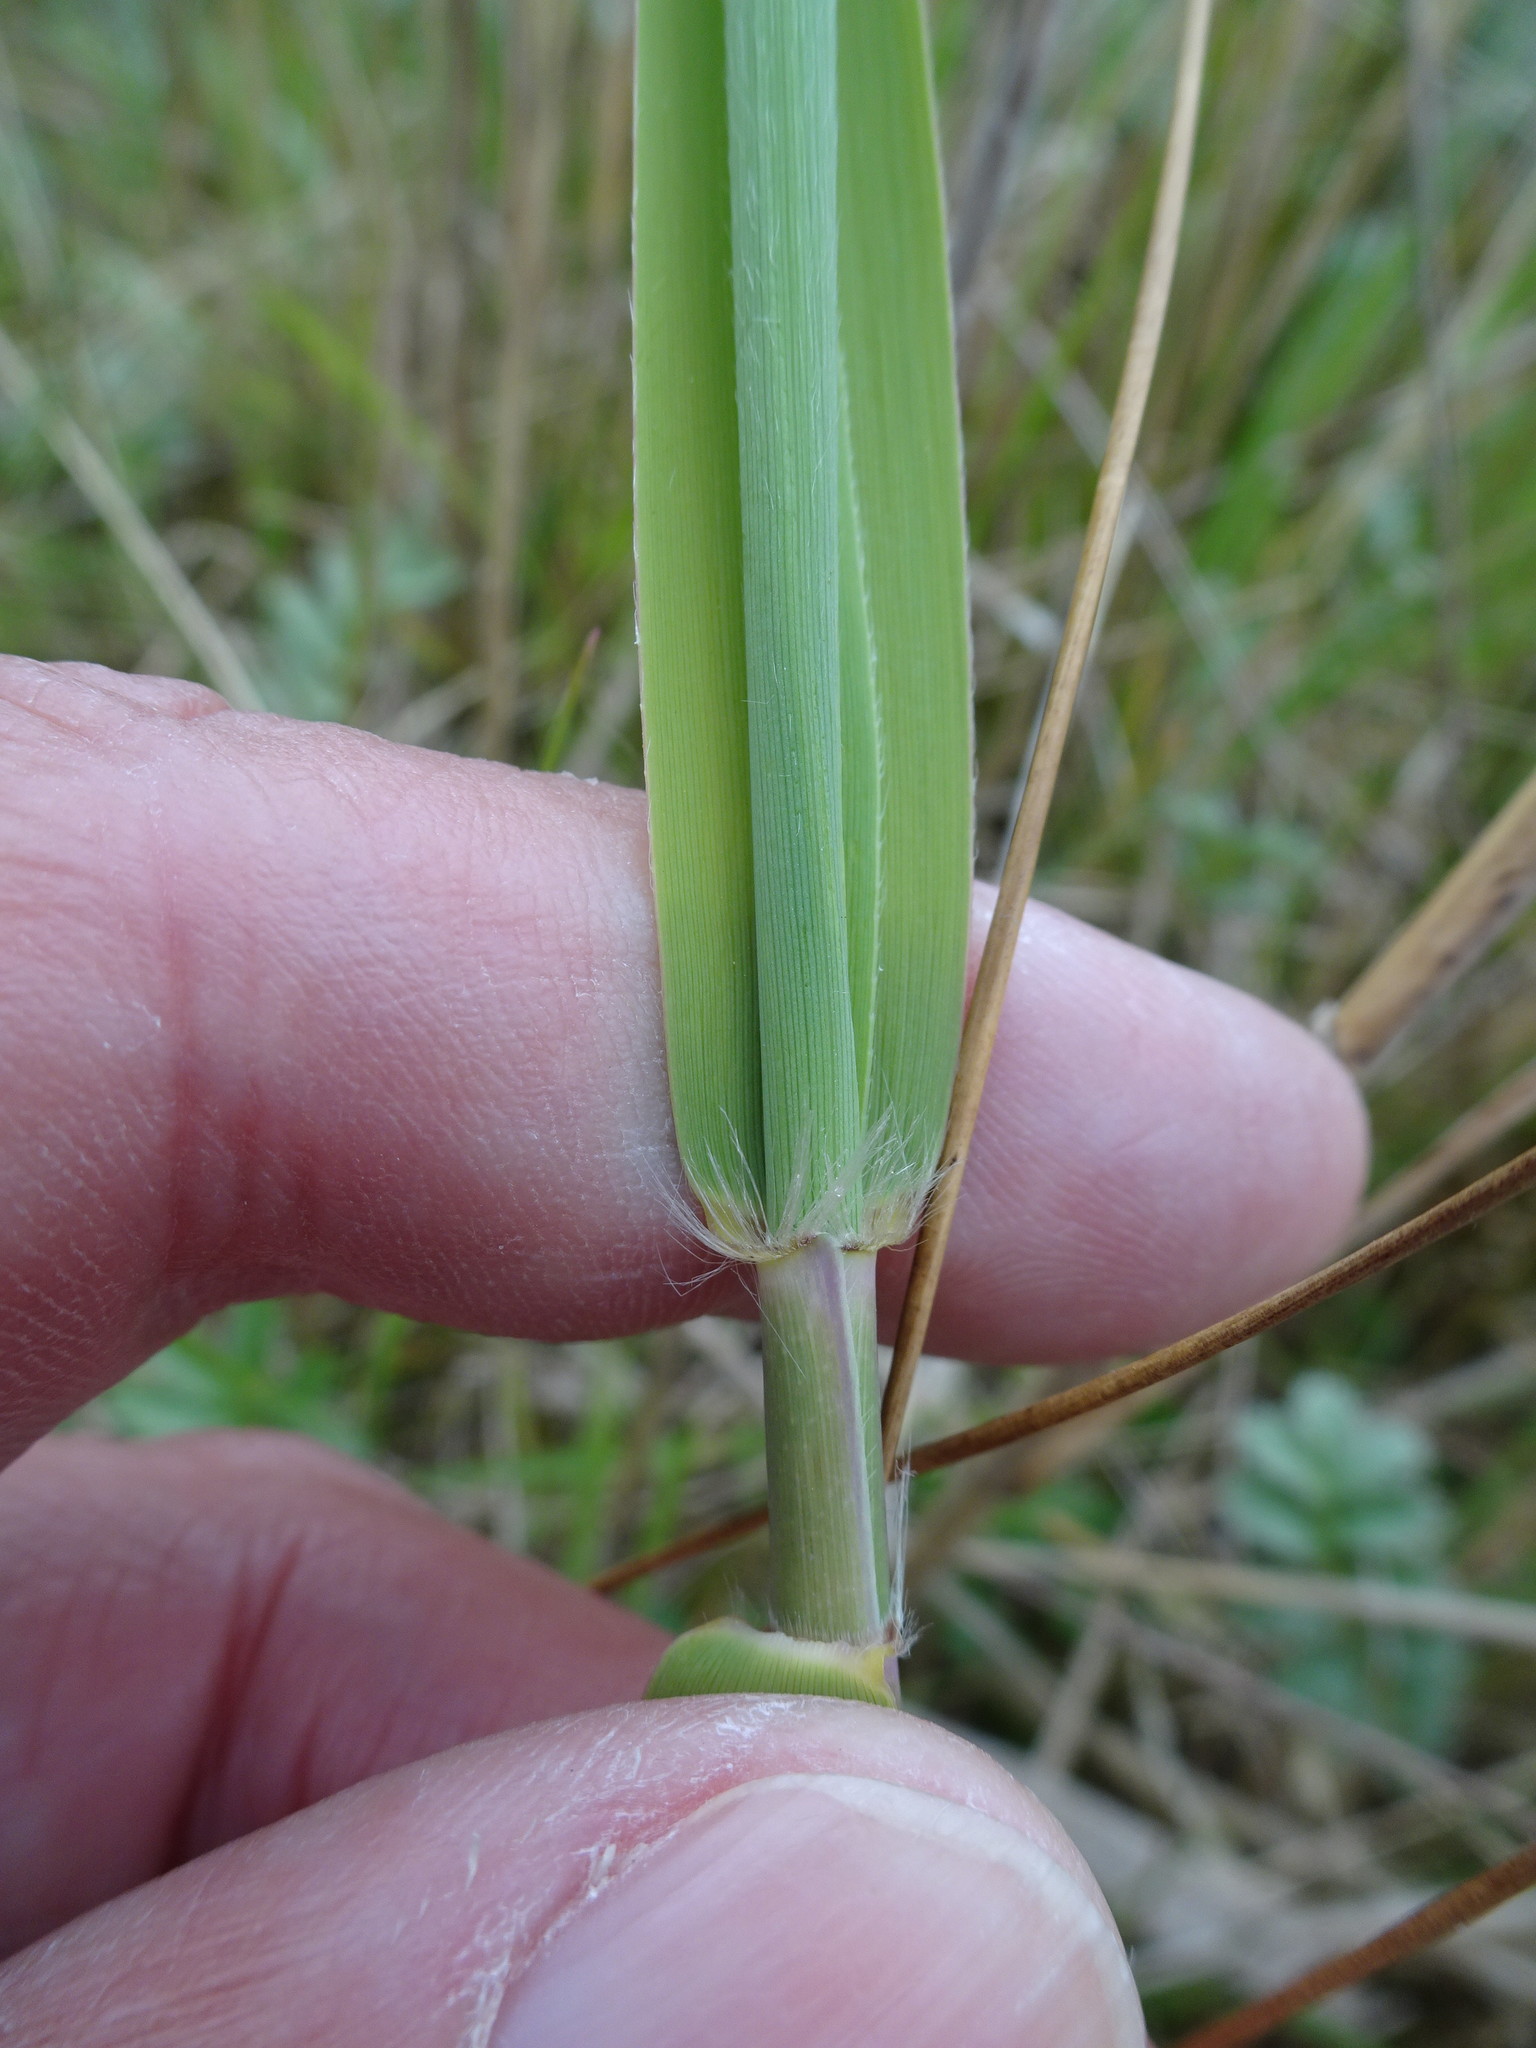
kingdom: Plantae
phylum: Tracheophyta
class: Liliopsida
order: Poales
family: Poaceae
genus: Phragmites
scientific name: Phragmites australis
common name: Common reed
